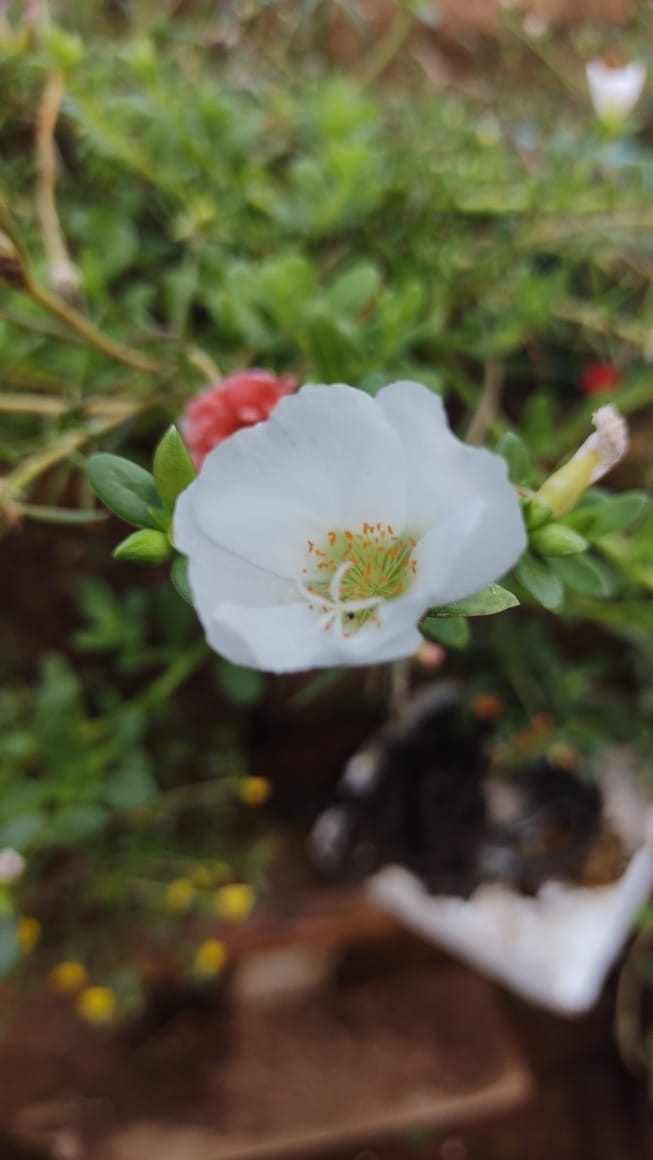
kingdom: Plantae
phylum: Tracheophyta
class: Magnoliopsida
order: Caryophyllales
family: Portulacaceae
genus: Portulaca
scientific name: Portulaca umbraticola
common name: Wingpod purslane
